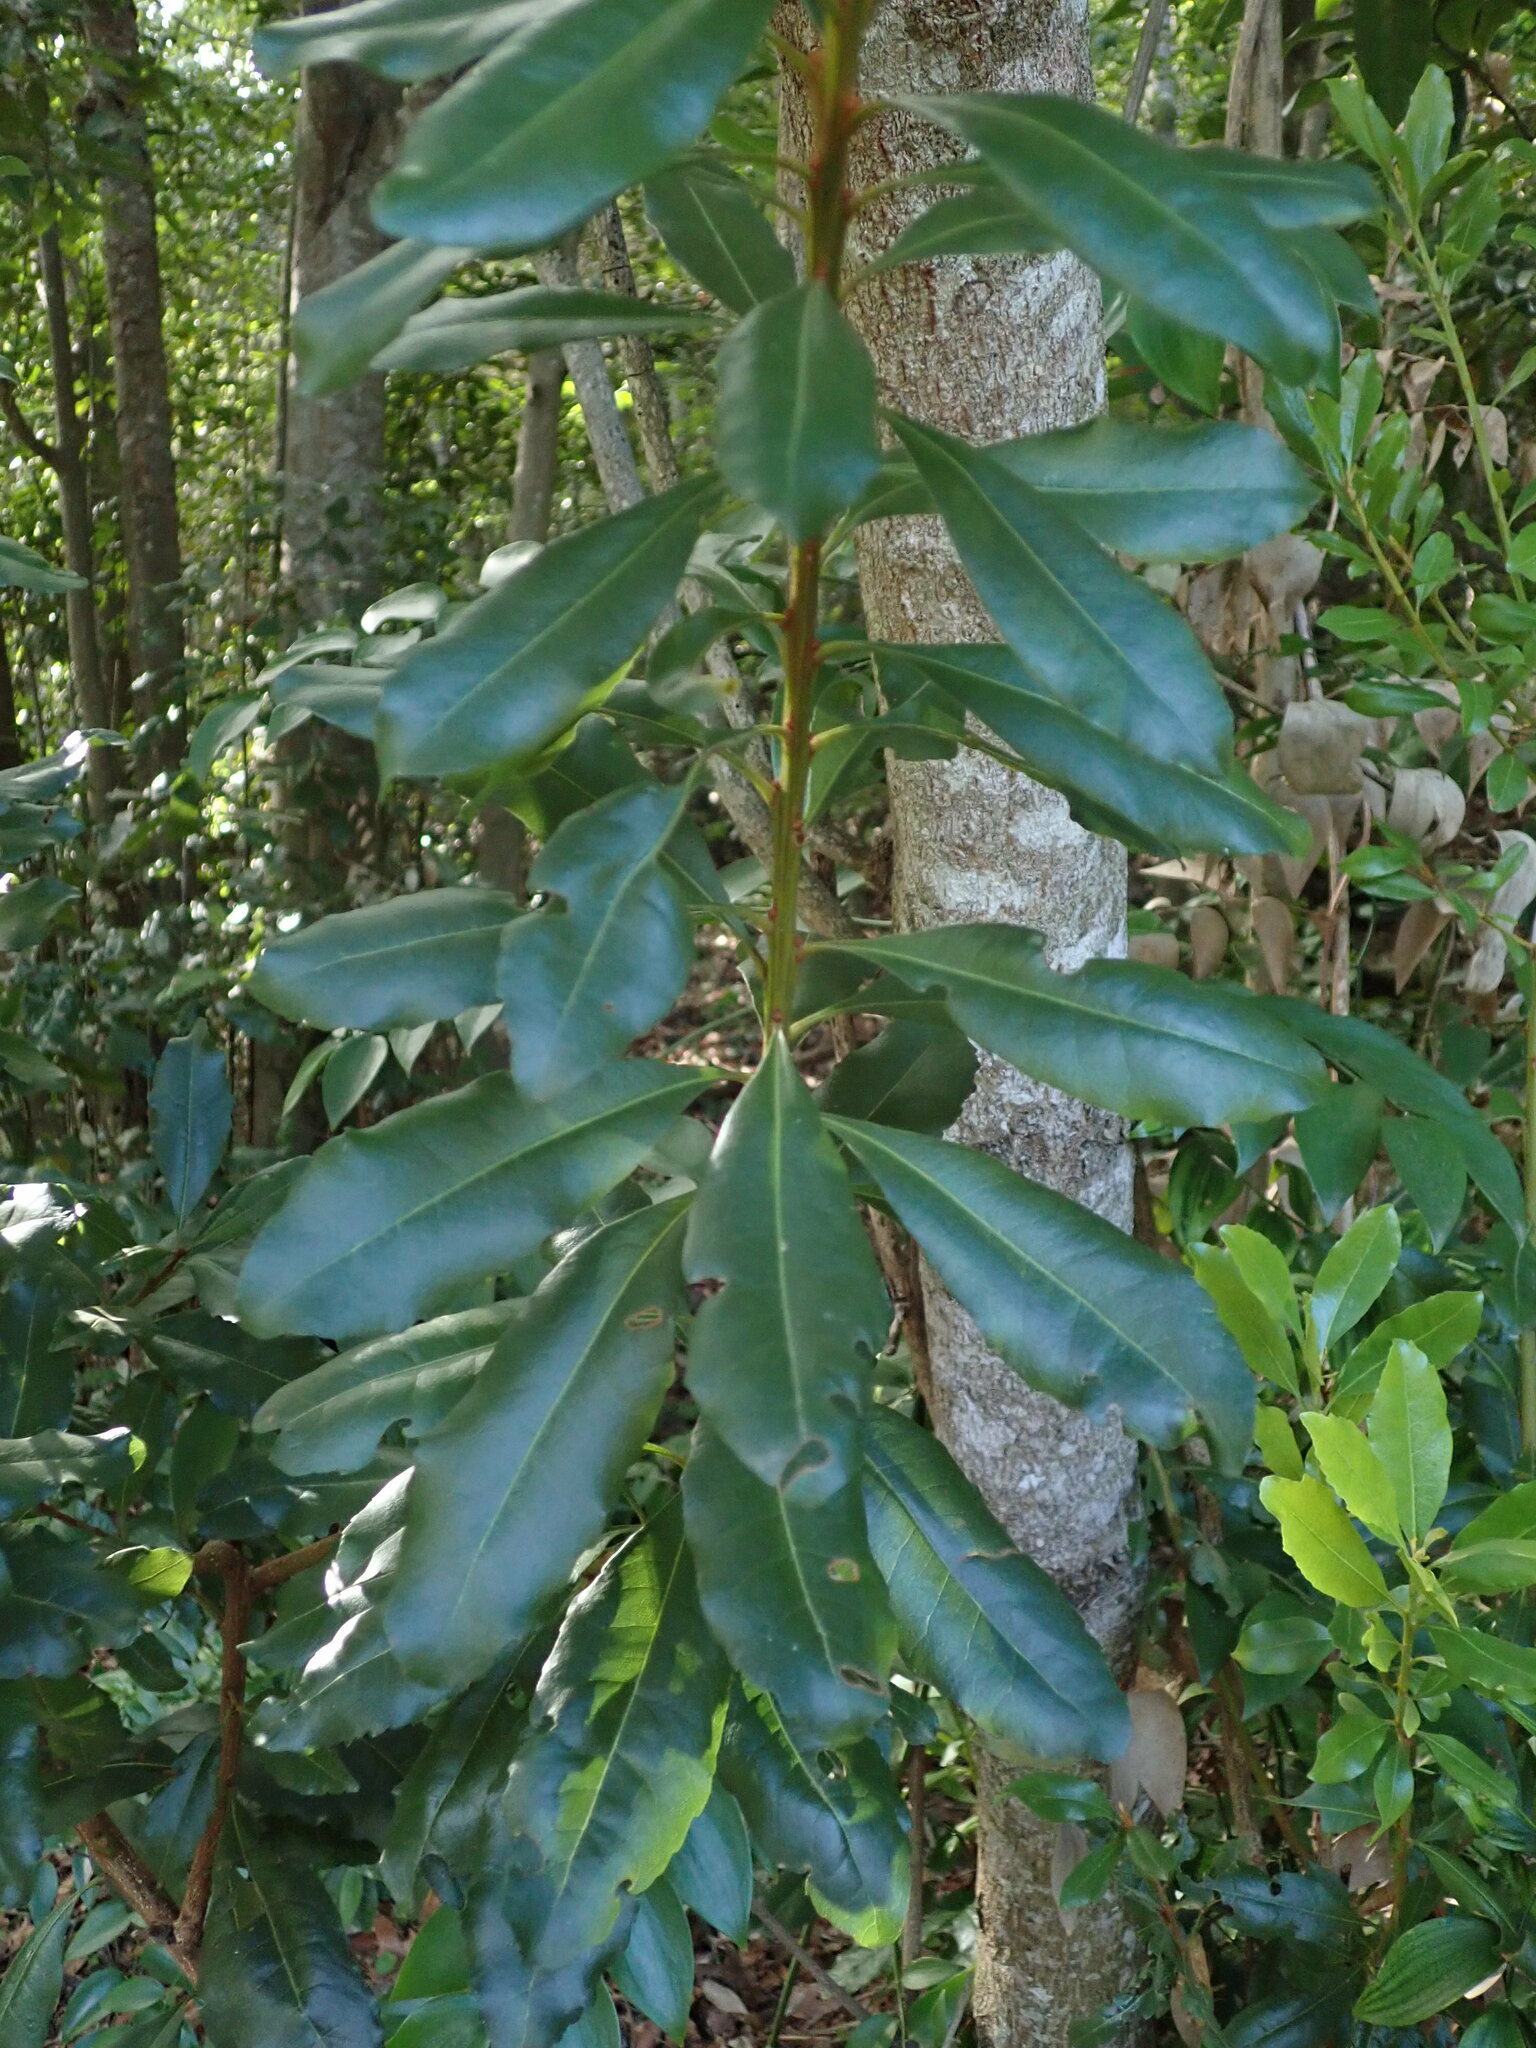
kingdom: Plantae
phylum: Tracheophyta
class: Magnoliopsida
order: Fagales
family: Myricaceae
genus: Morella
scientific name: Morella faya
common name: Firetree
